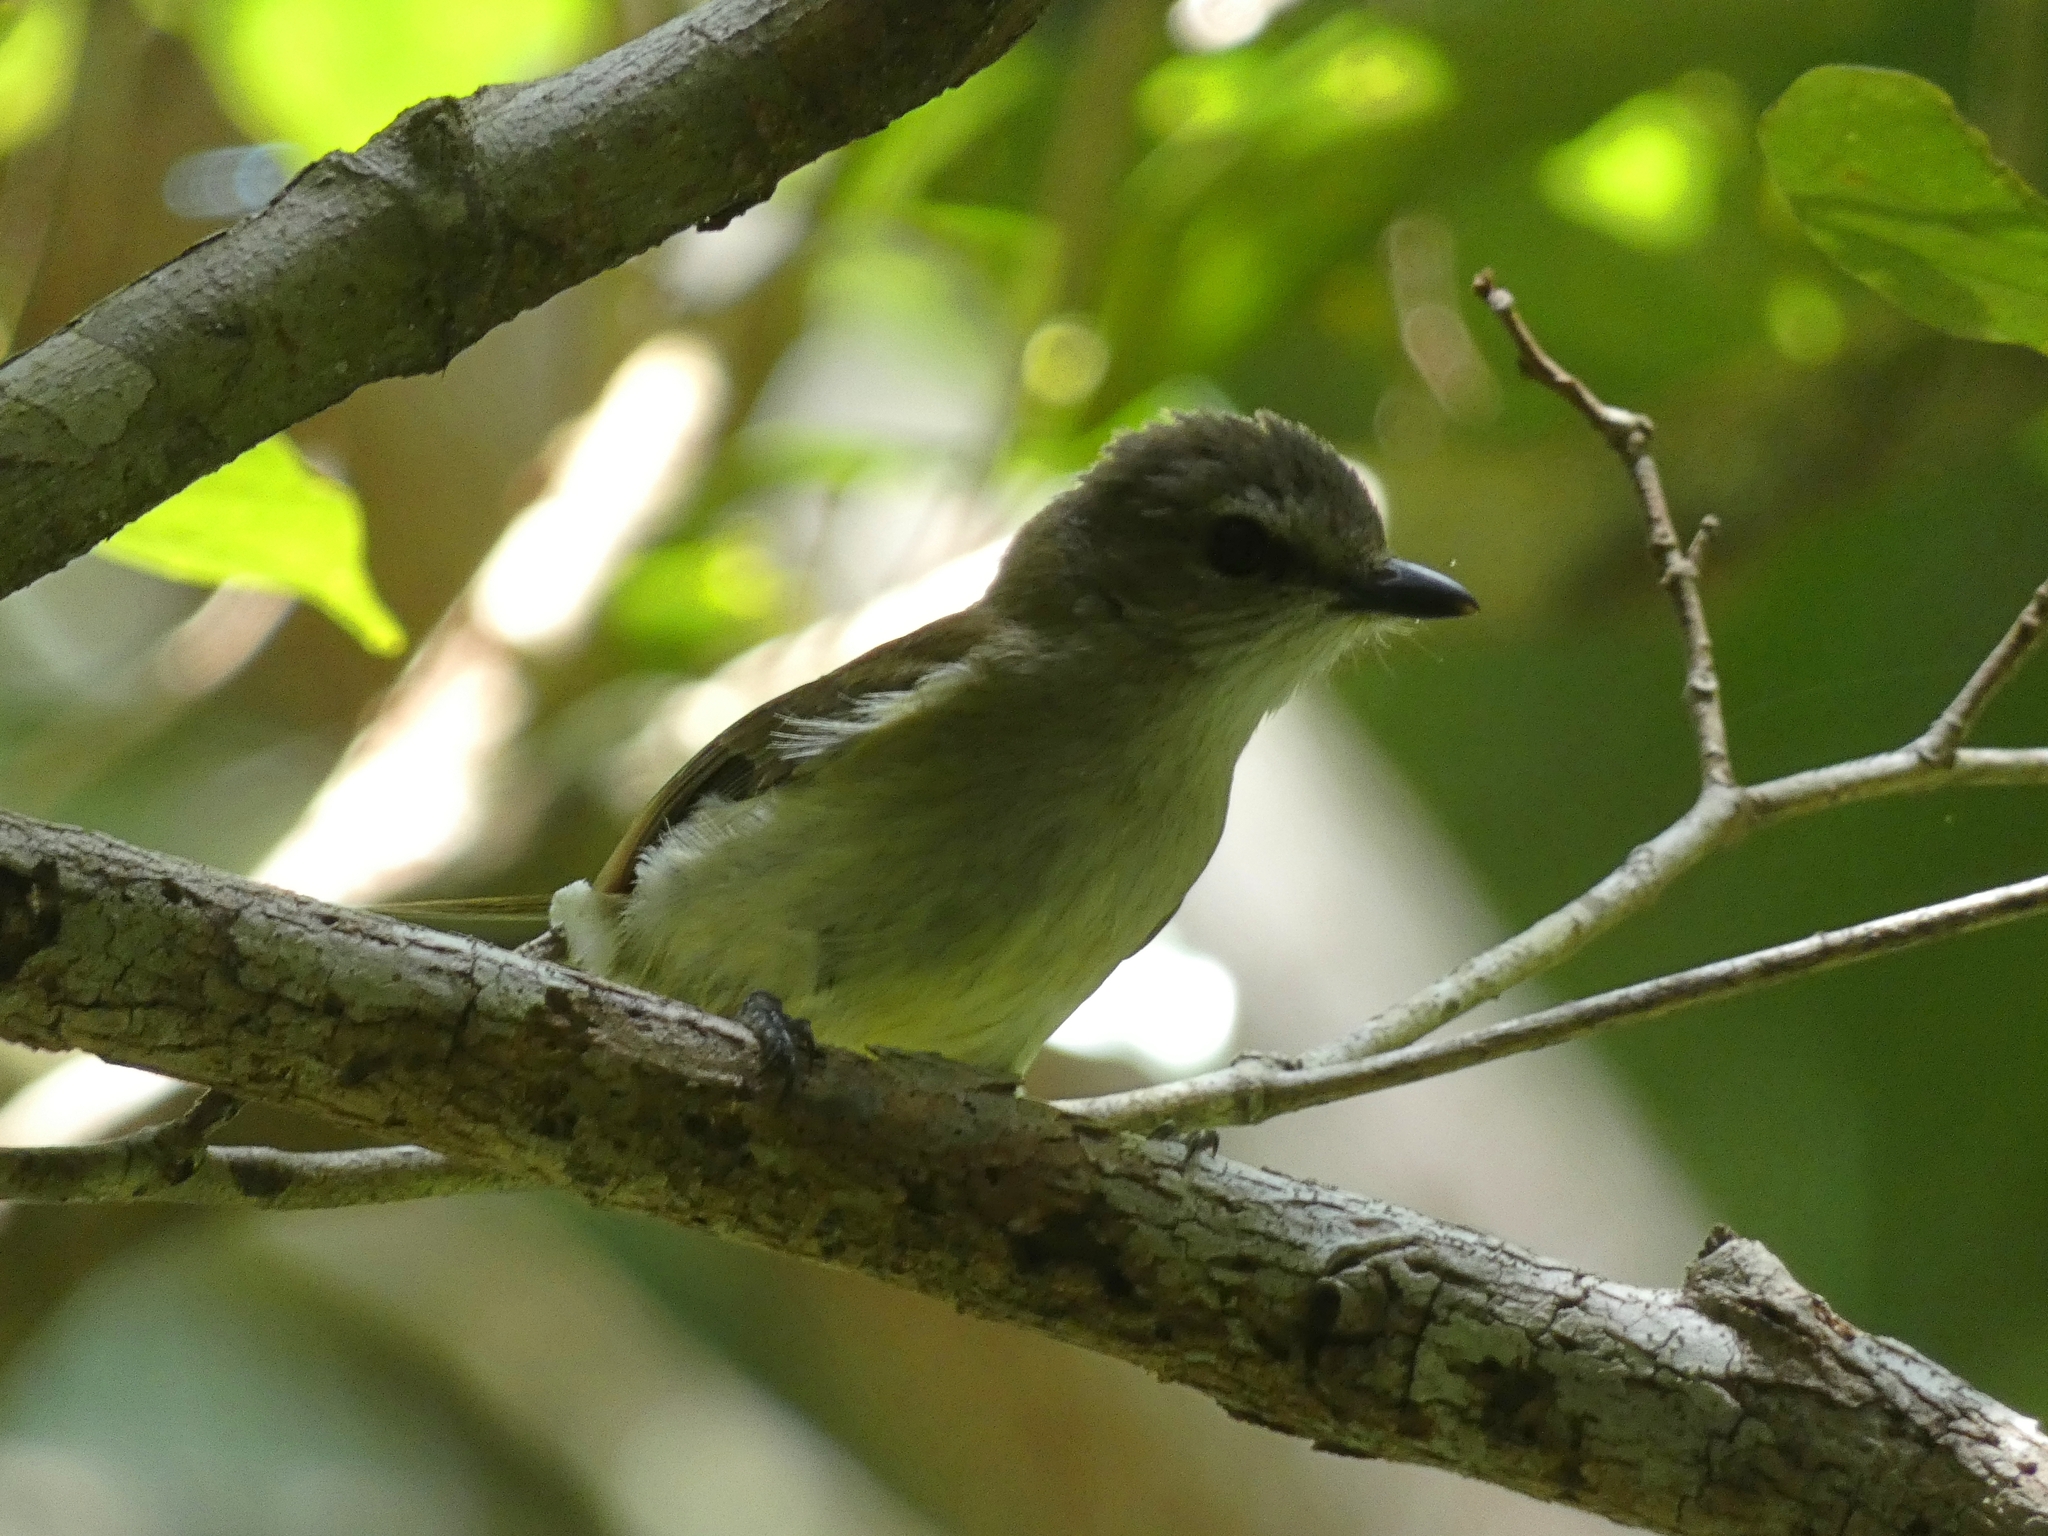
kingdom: Animalia
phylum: Chordata
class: Aves
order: Passeriformes
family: Petroicidae
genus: Microeca
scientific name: Microeca flavigaster
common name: Lemon-bellied flyrobin
